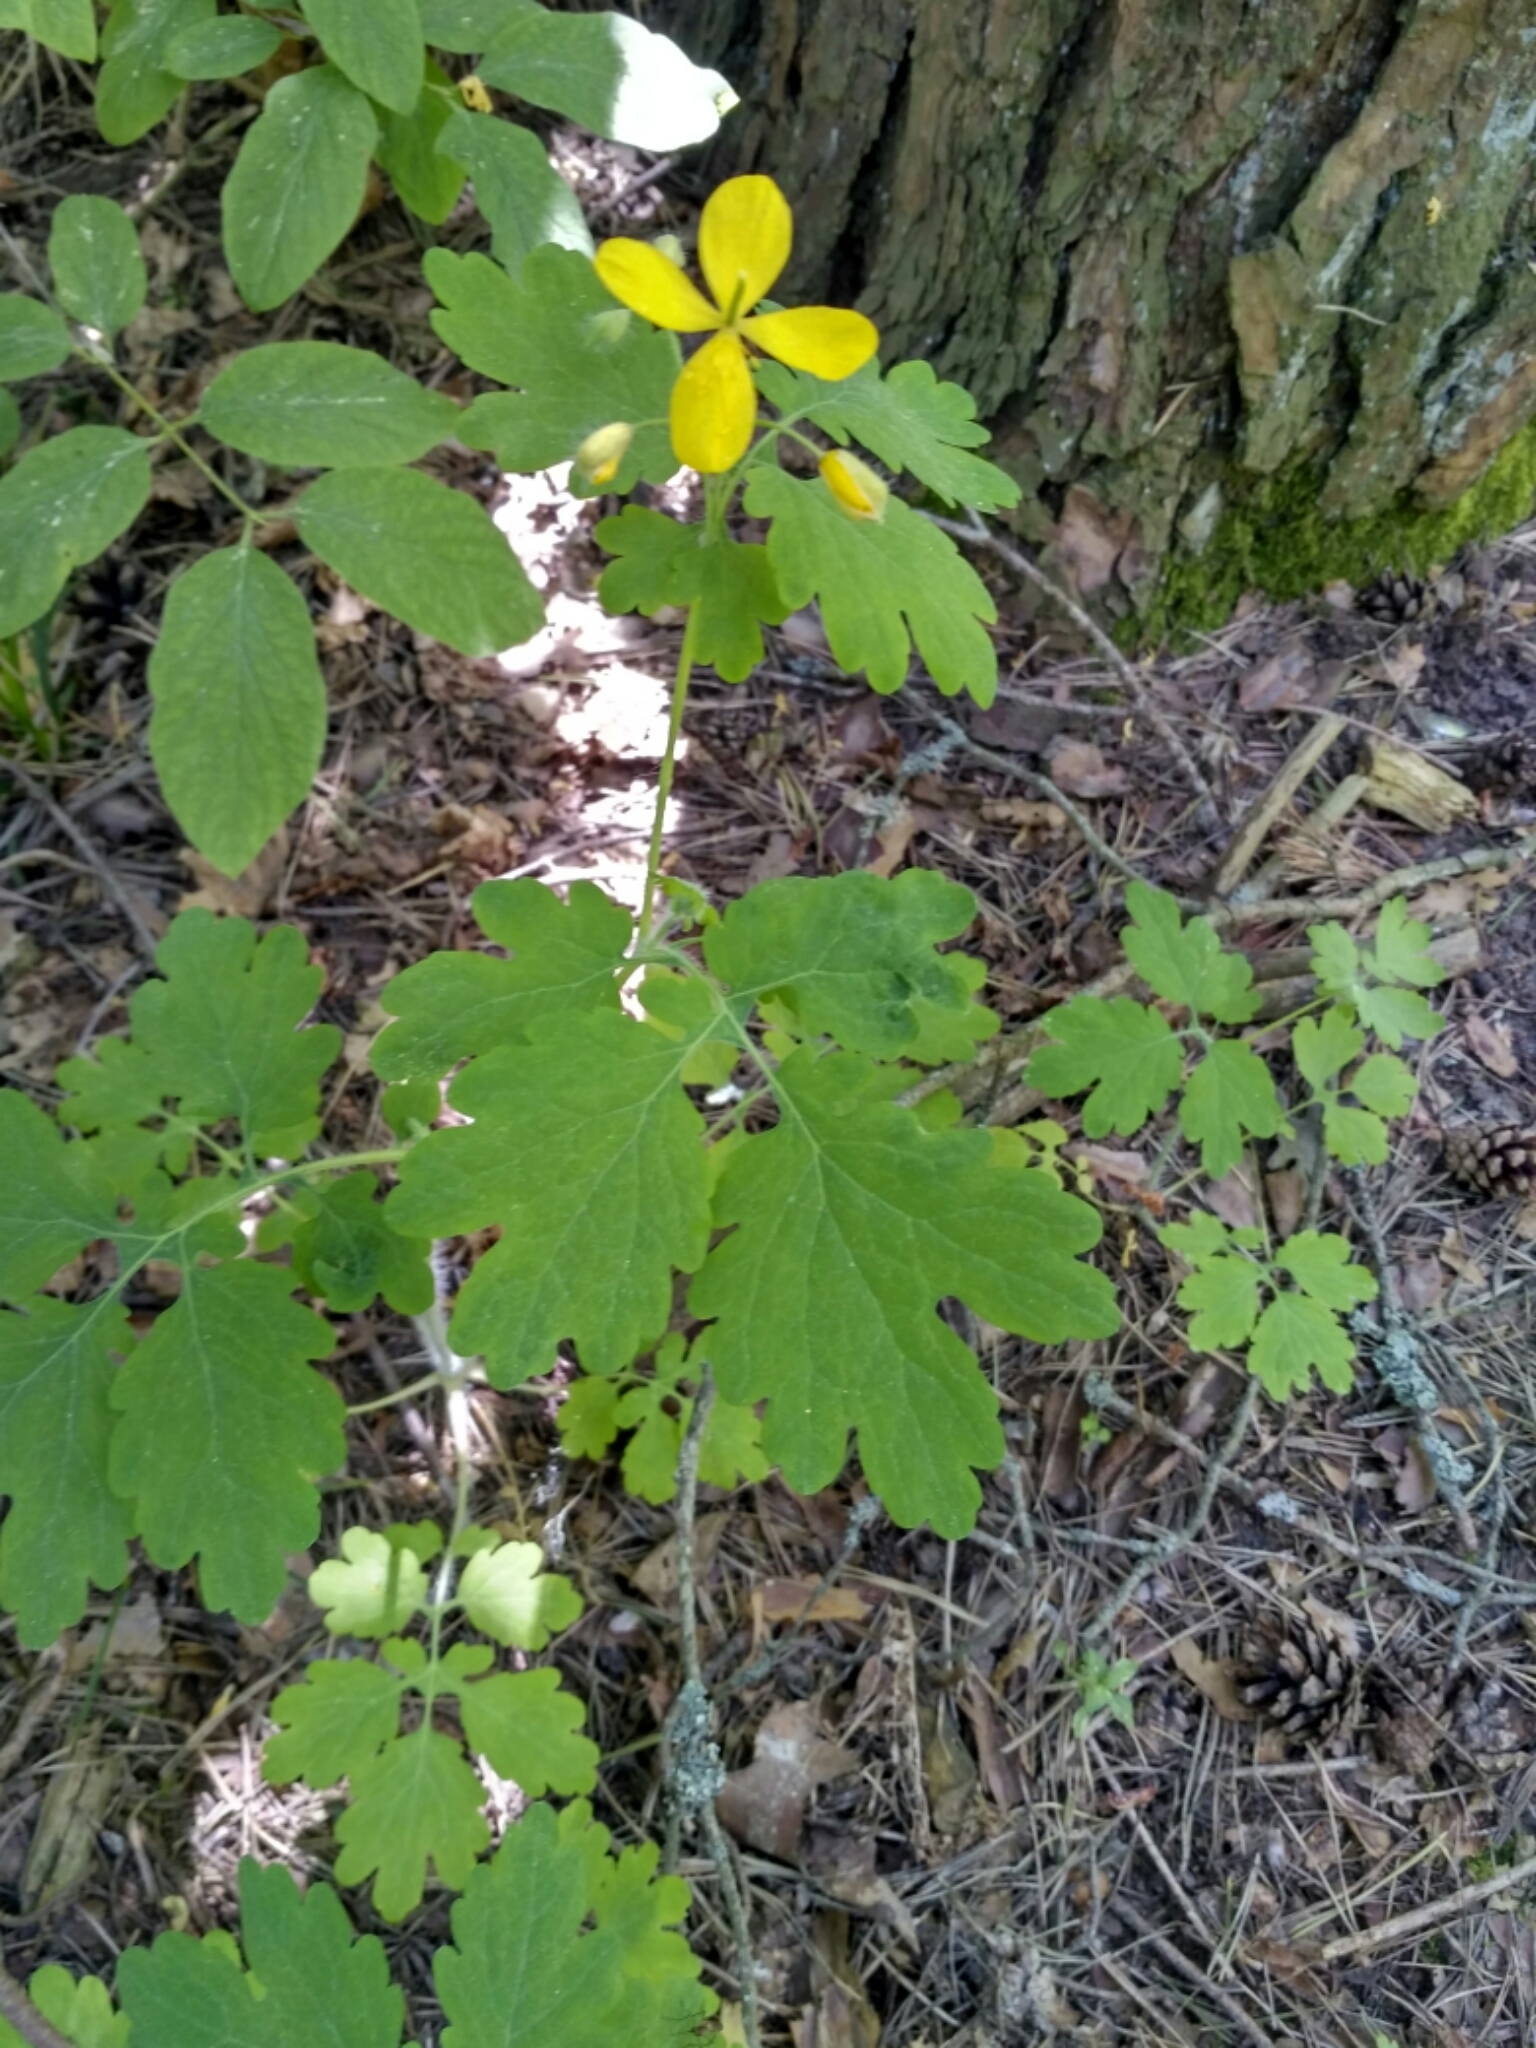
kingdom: Plantae
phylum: Tracheophyta
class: Magnoliopsida
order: Ranunculales
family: Papaveraceae
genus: Chelidonium
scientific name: Chelidonium majus
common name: Greater celandine
